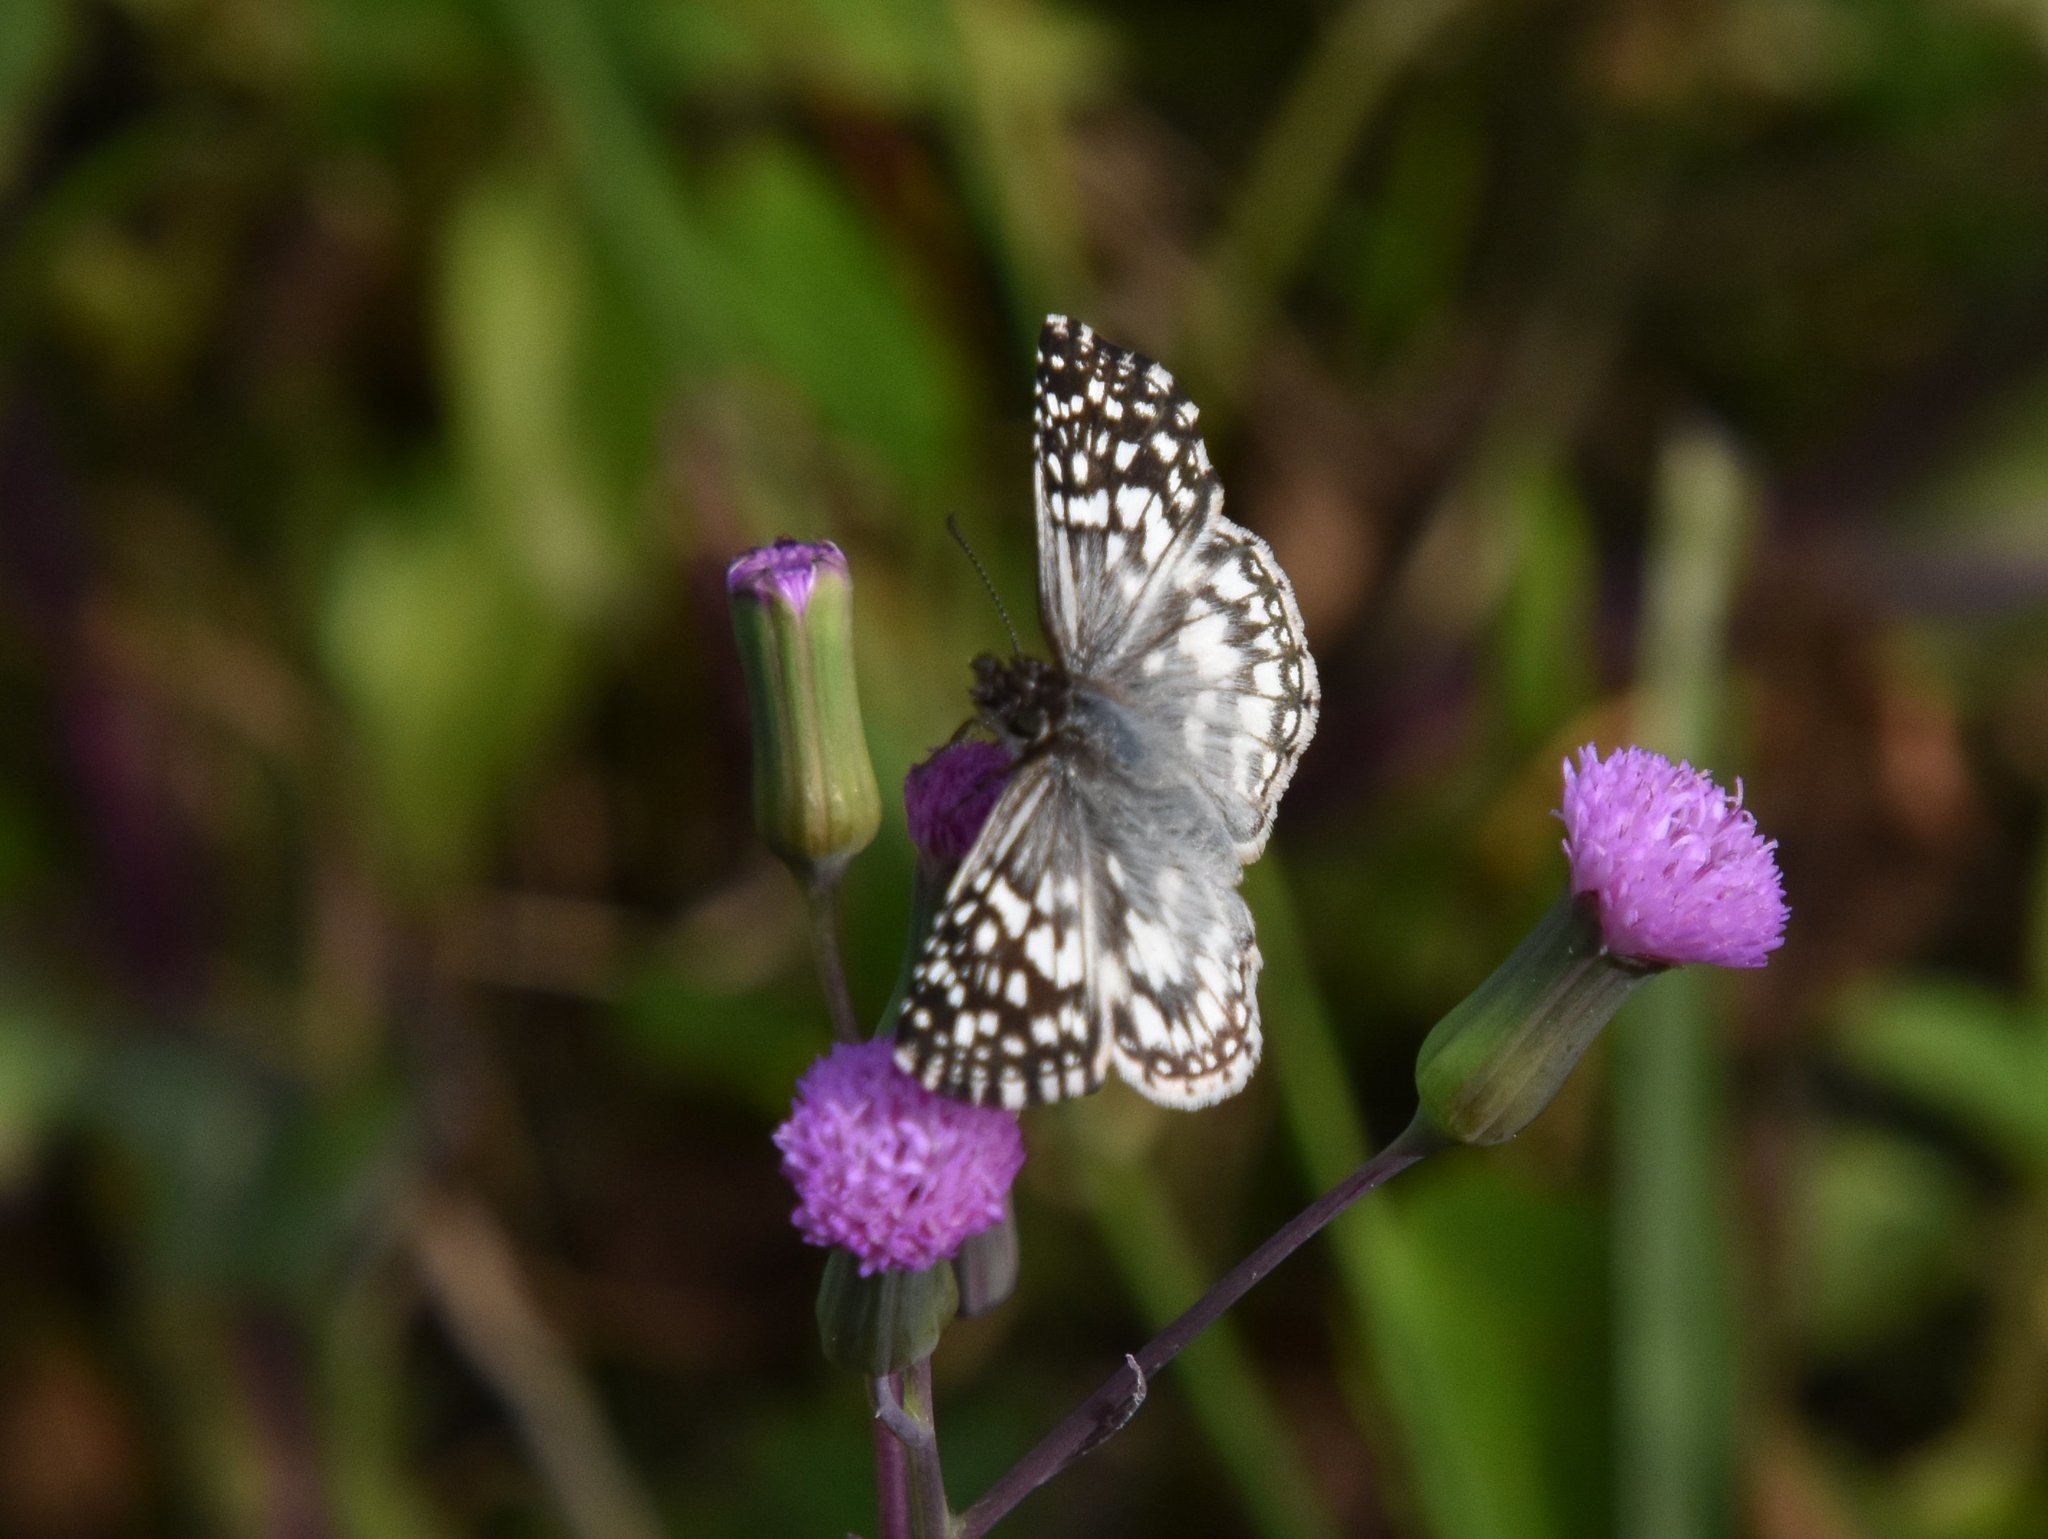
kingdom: Animalia
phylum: Arthropoda
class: Insecta
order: Lepidoptera
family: Hesperiidae
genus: Pyrgus
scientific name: Pyrgus oileus
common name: Tropical checkered-skipper
